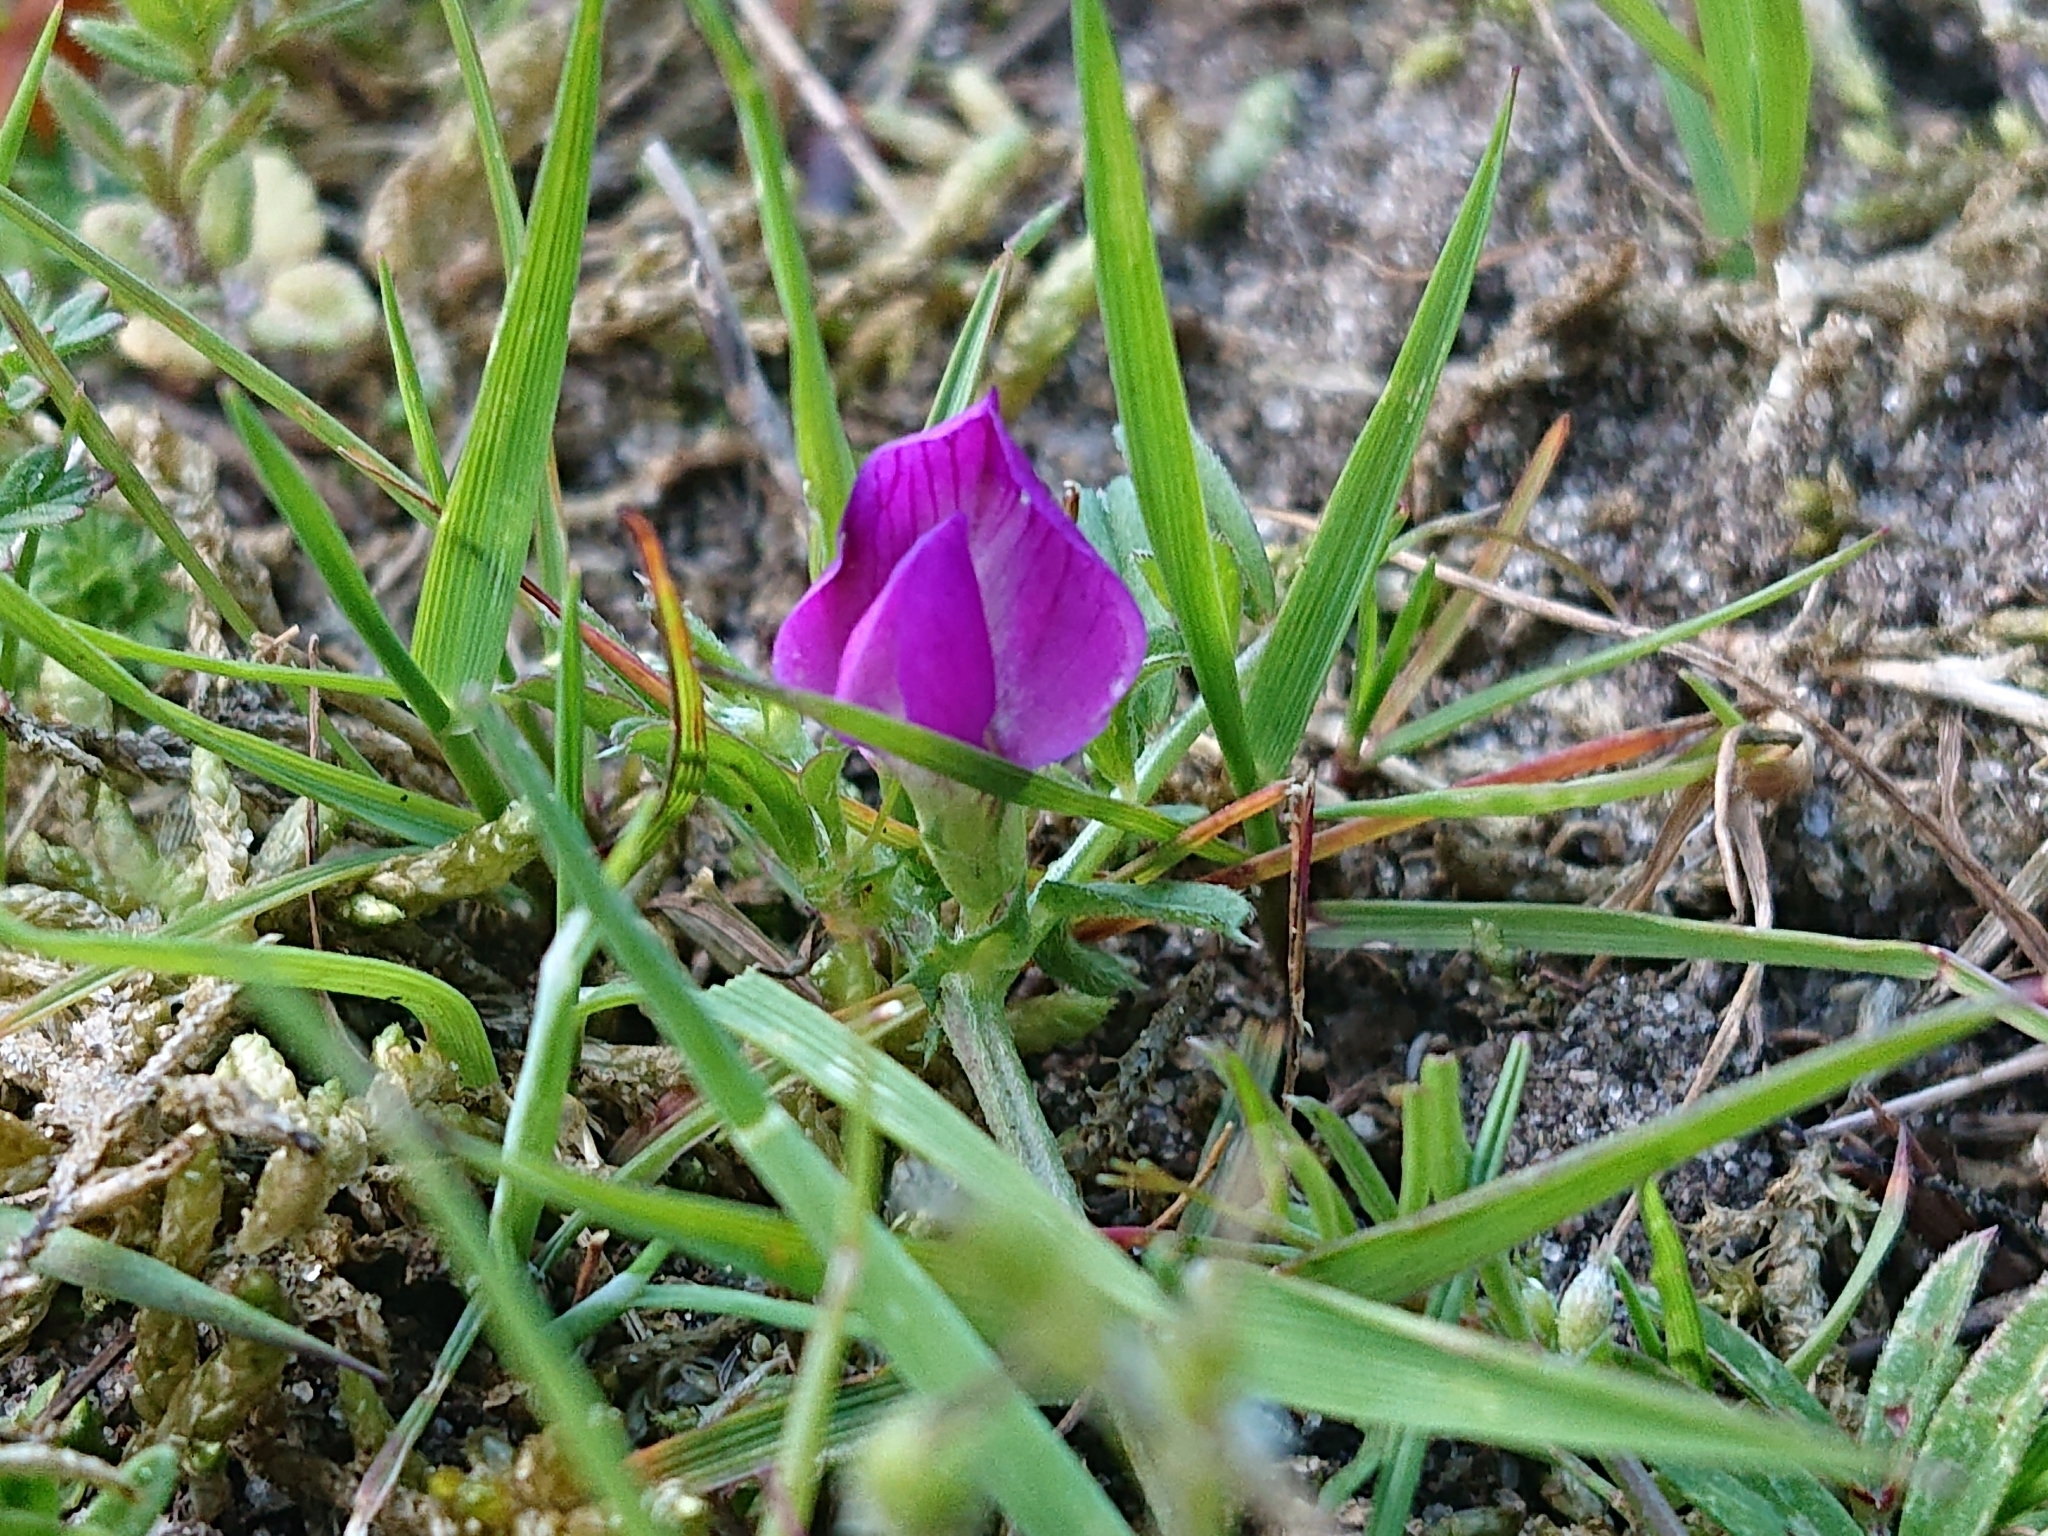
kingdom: Plantae
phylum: Tracheophyta
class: Magnoliopsida
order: Fabales
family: Fabaceae
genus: Vicia
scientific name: Vicia sativa
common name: Garden vetch
